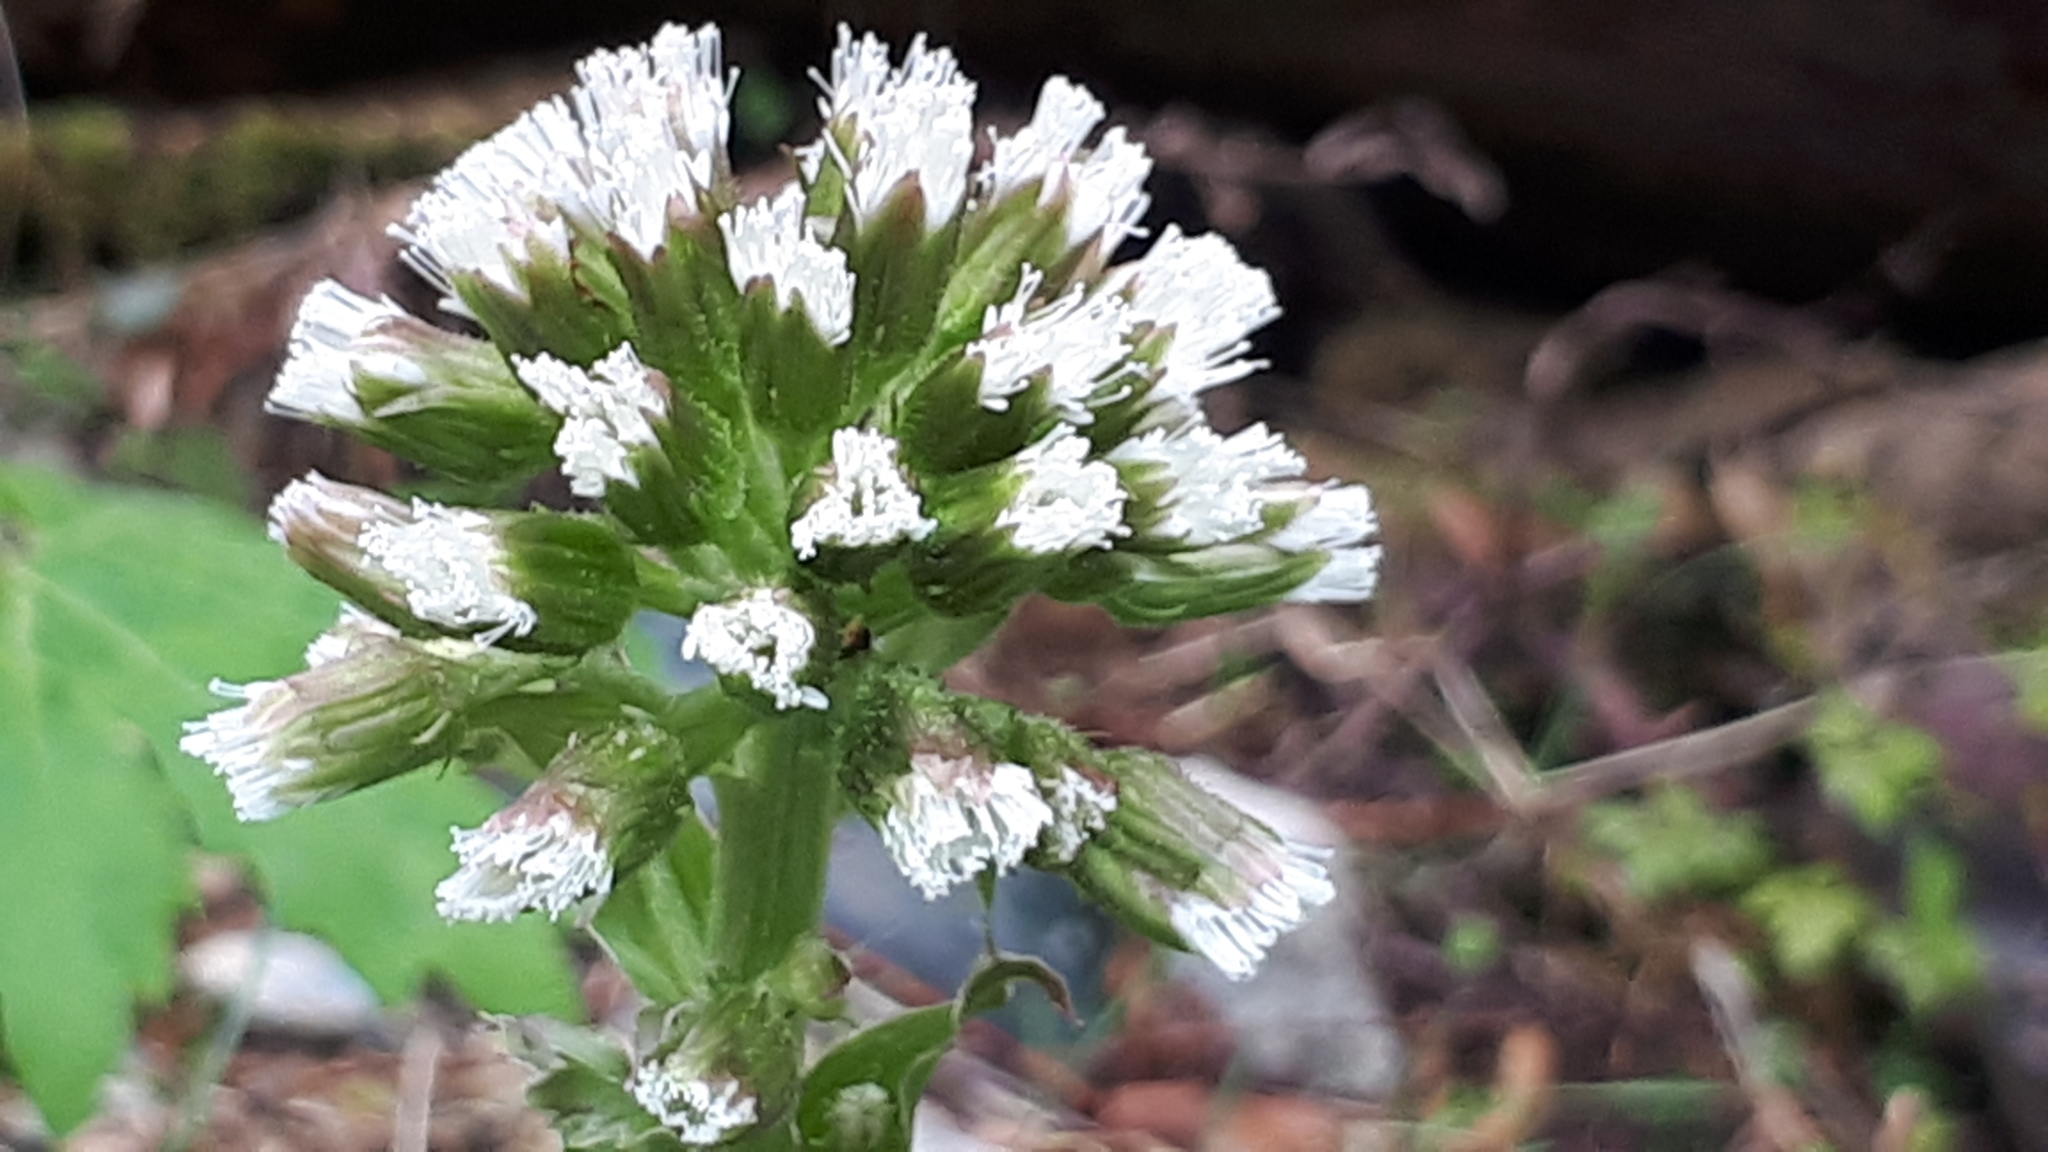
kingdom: Plantae
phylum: Tracheophyta
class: Magnoliopsida
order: Asterales
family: Asteraceae
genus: Petasites
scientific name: Petasites frigidus
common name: Arctic butterbur
